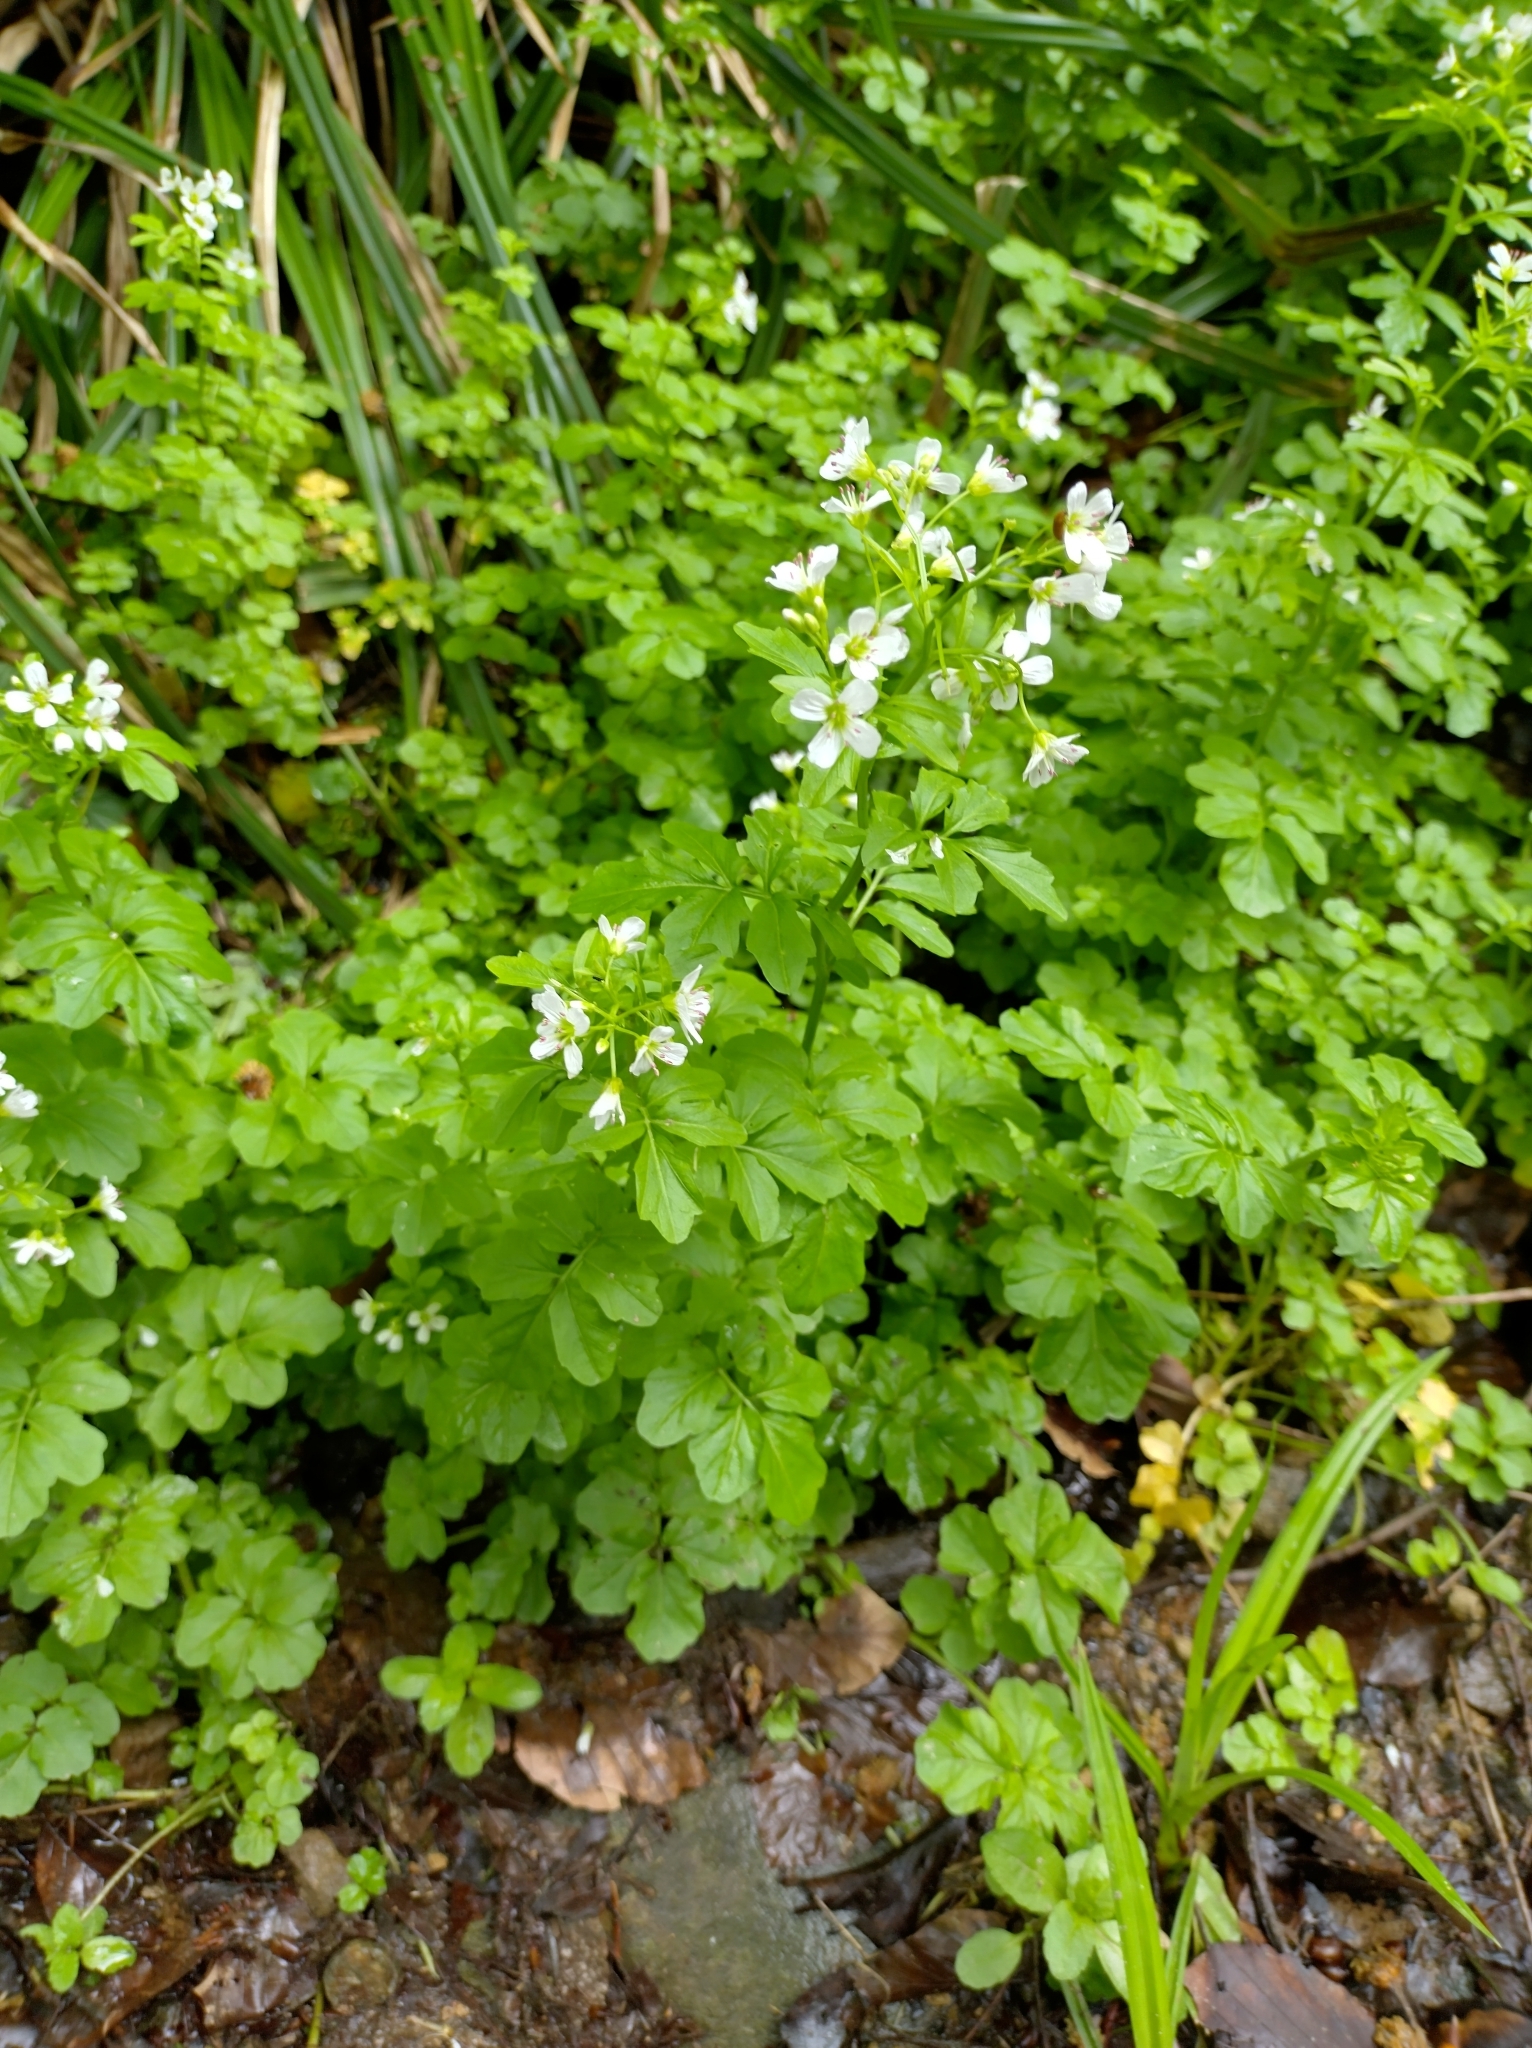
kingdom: Plantae
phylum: Tracheophyta
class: Magnoliopsida
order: Brassicales
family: Brassicaceae
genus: Cardamine
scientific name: Cardamine amara
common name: Large bitter-cress
